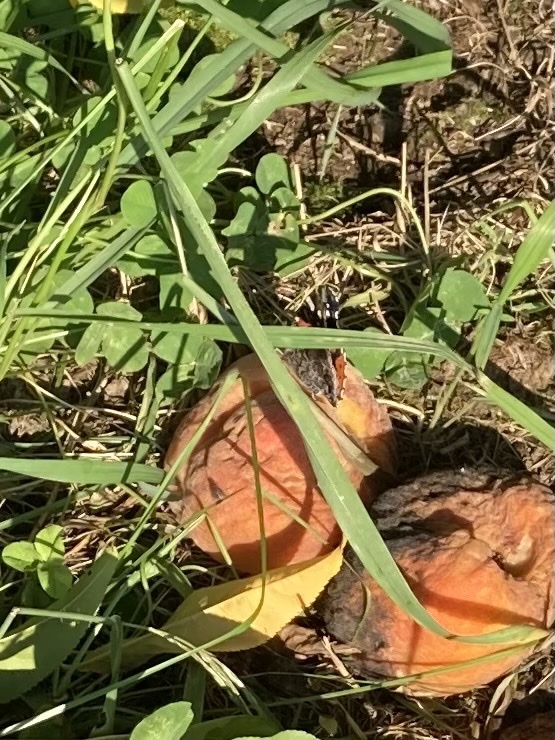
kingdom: Animalia
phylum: Arthropoda
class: Insecta
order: Lepidoptera
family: Nymphalidae
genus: Vanessa
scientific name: Vanessa atalanta
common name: Red admiral
